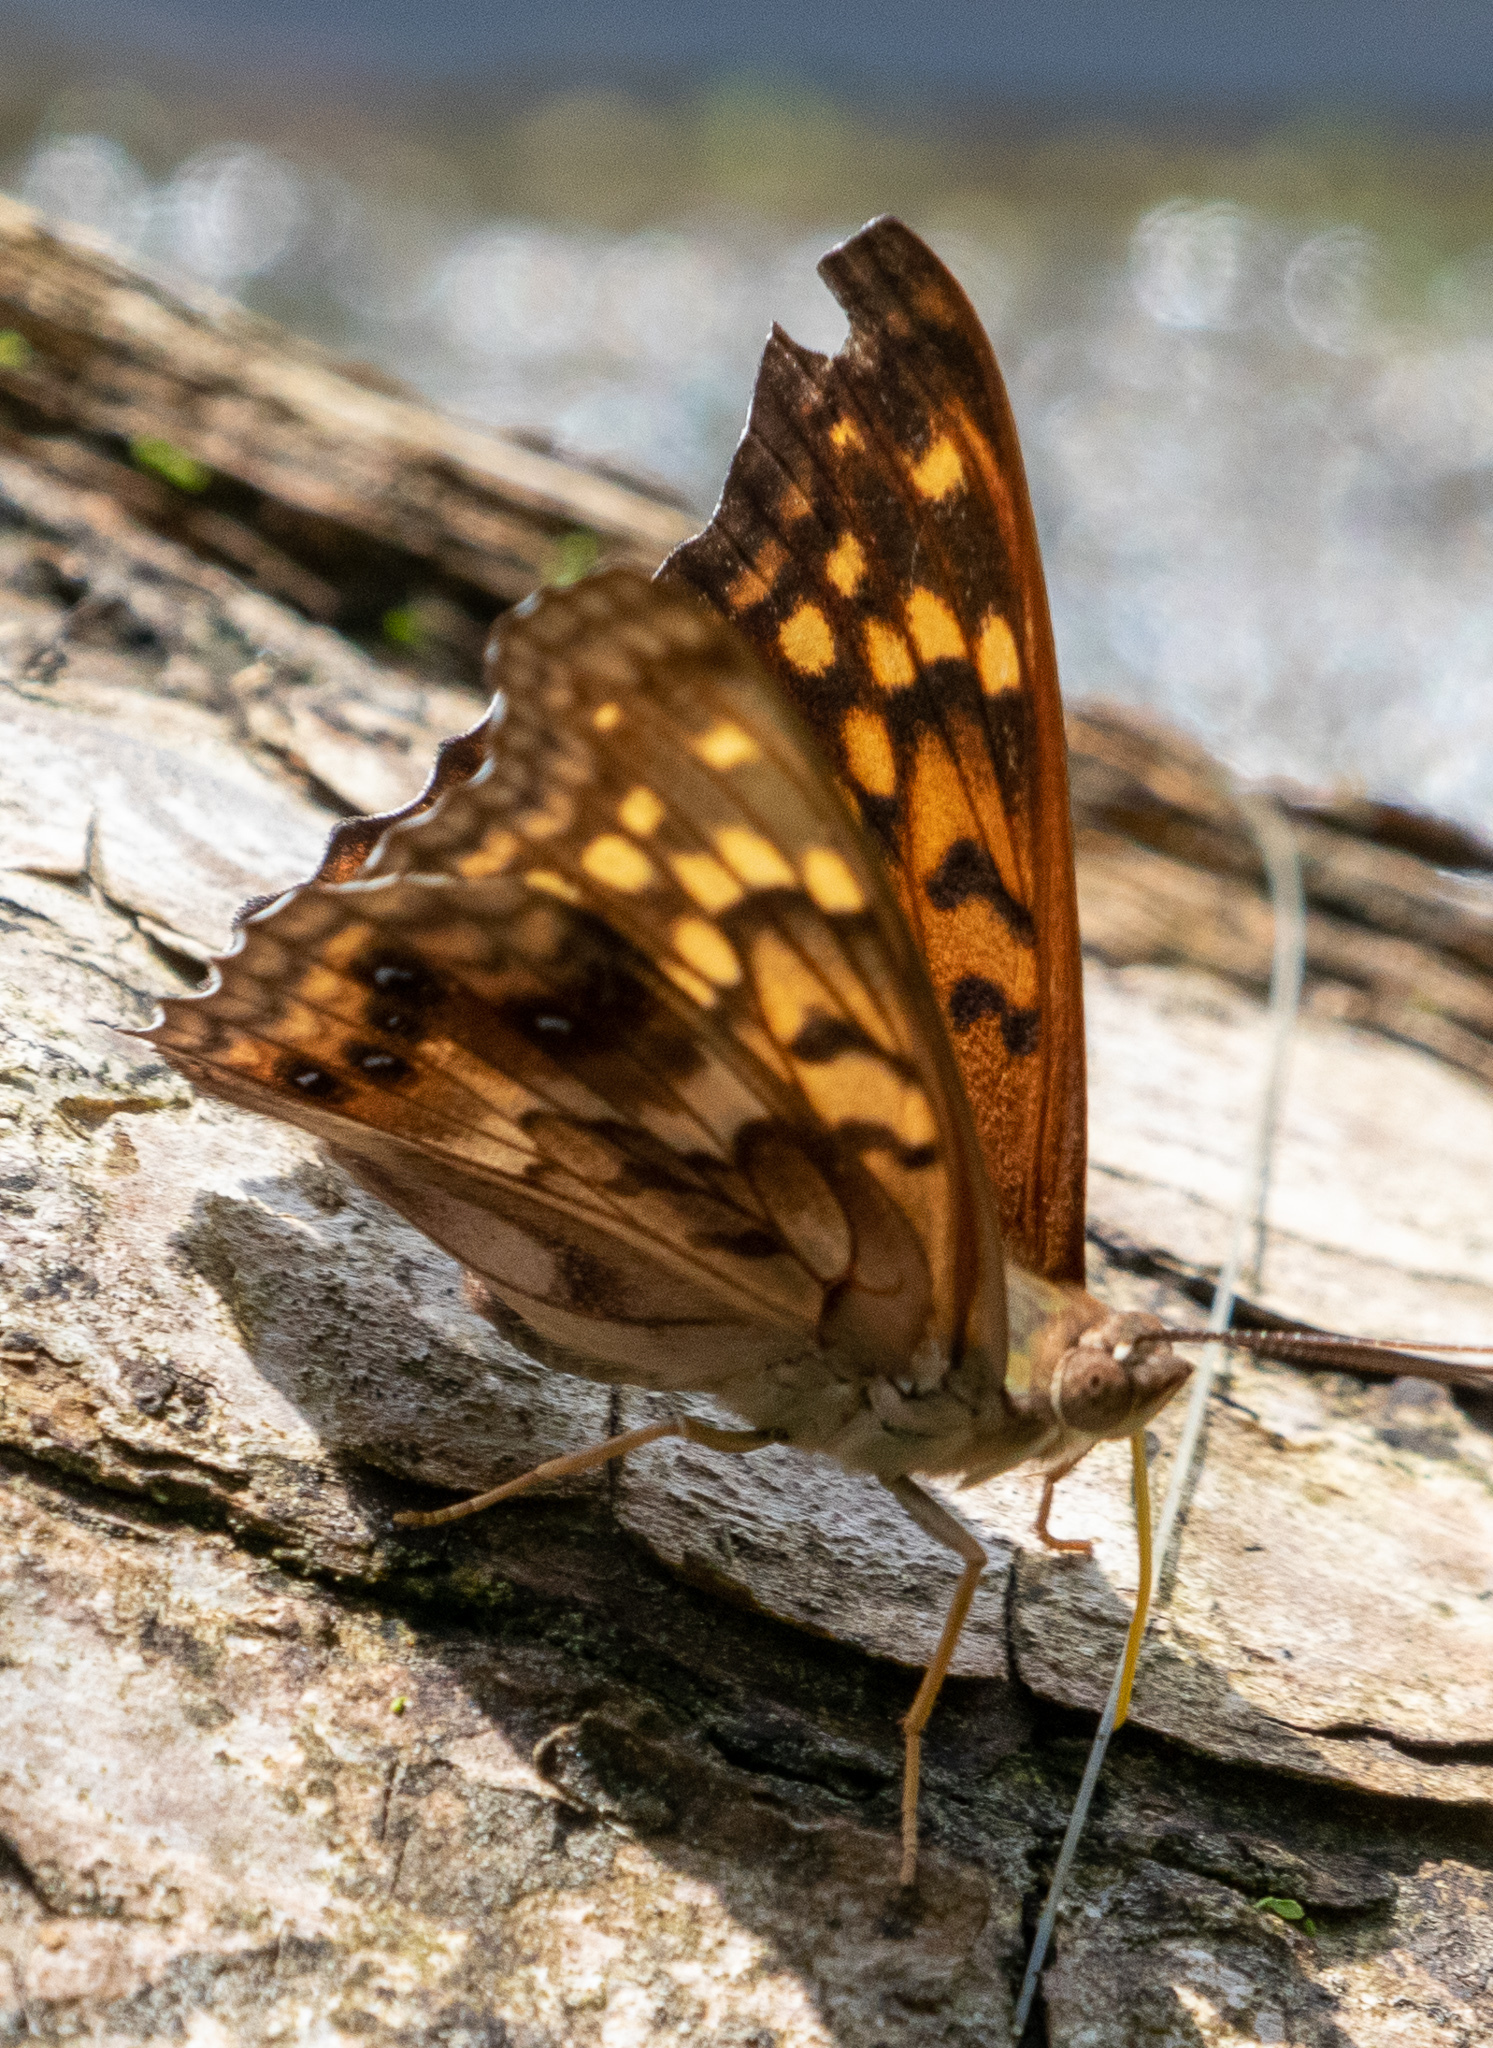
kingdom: Animalia
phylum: Arthropoda
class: Insecta
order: Lepidoptera
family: Nymphalidae
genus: Asterocampa
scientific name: Asterocampa clyton
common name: Tawny emperor
